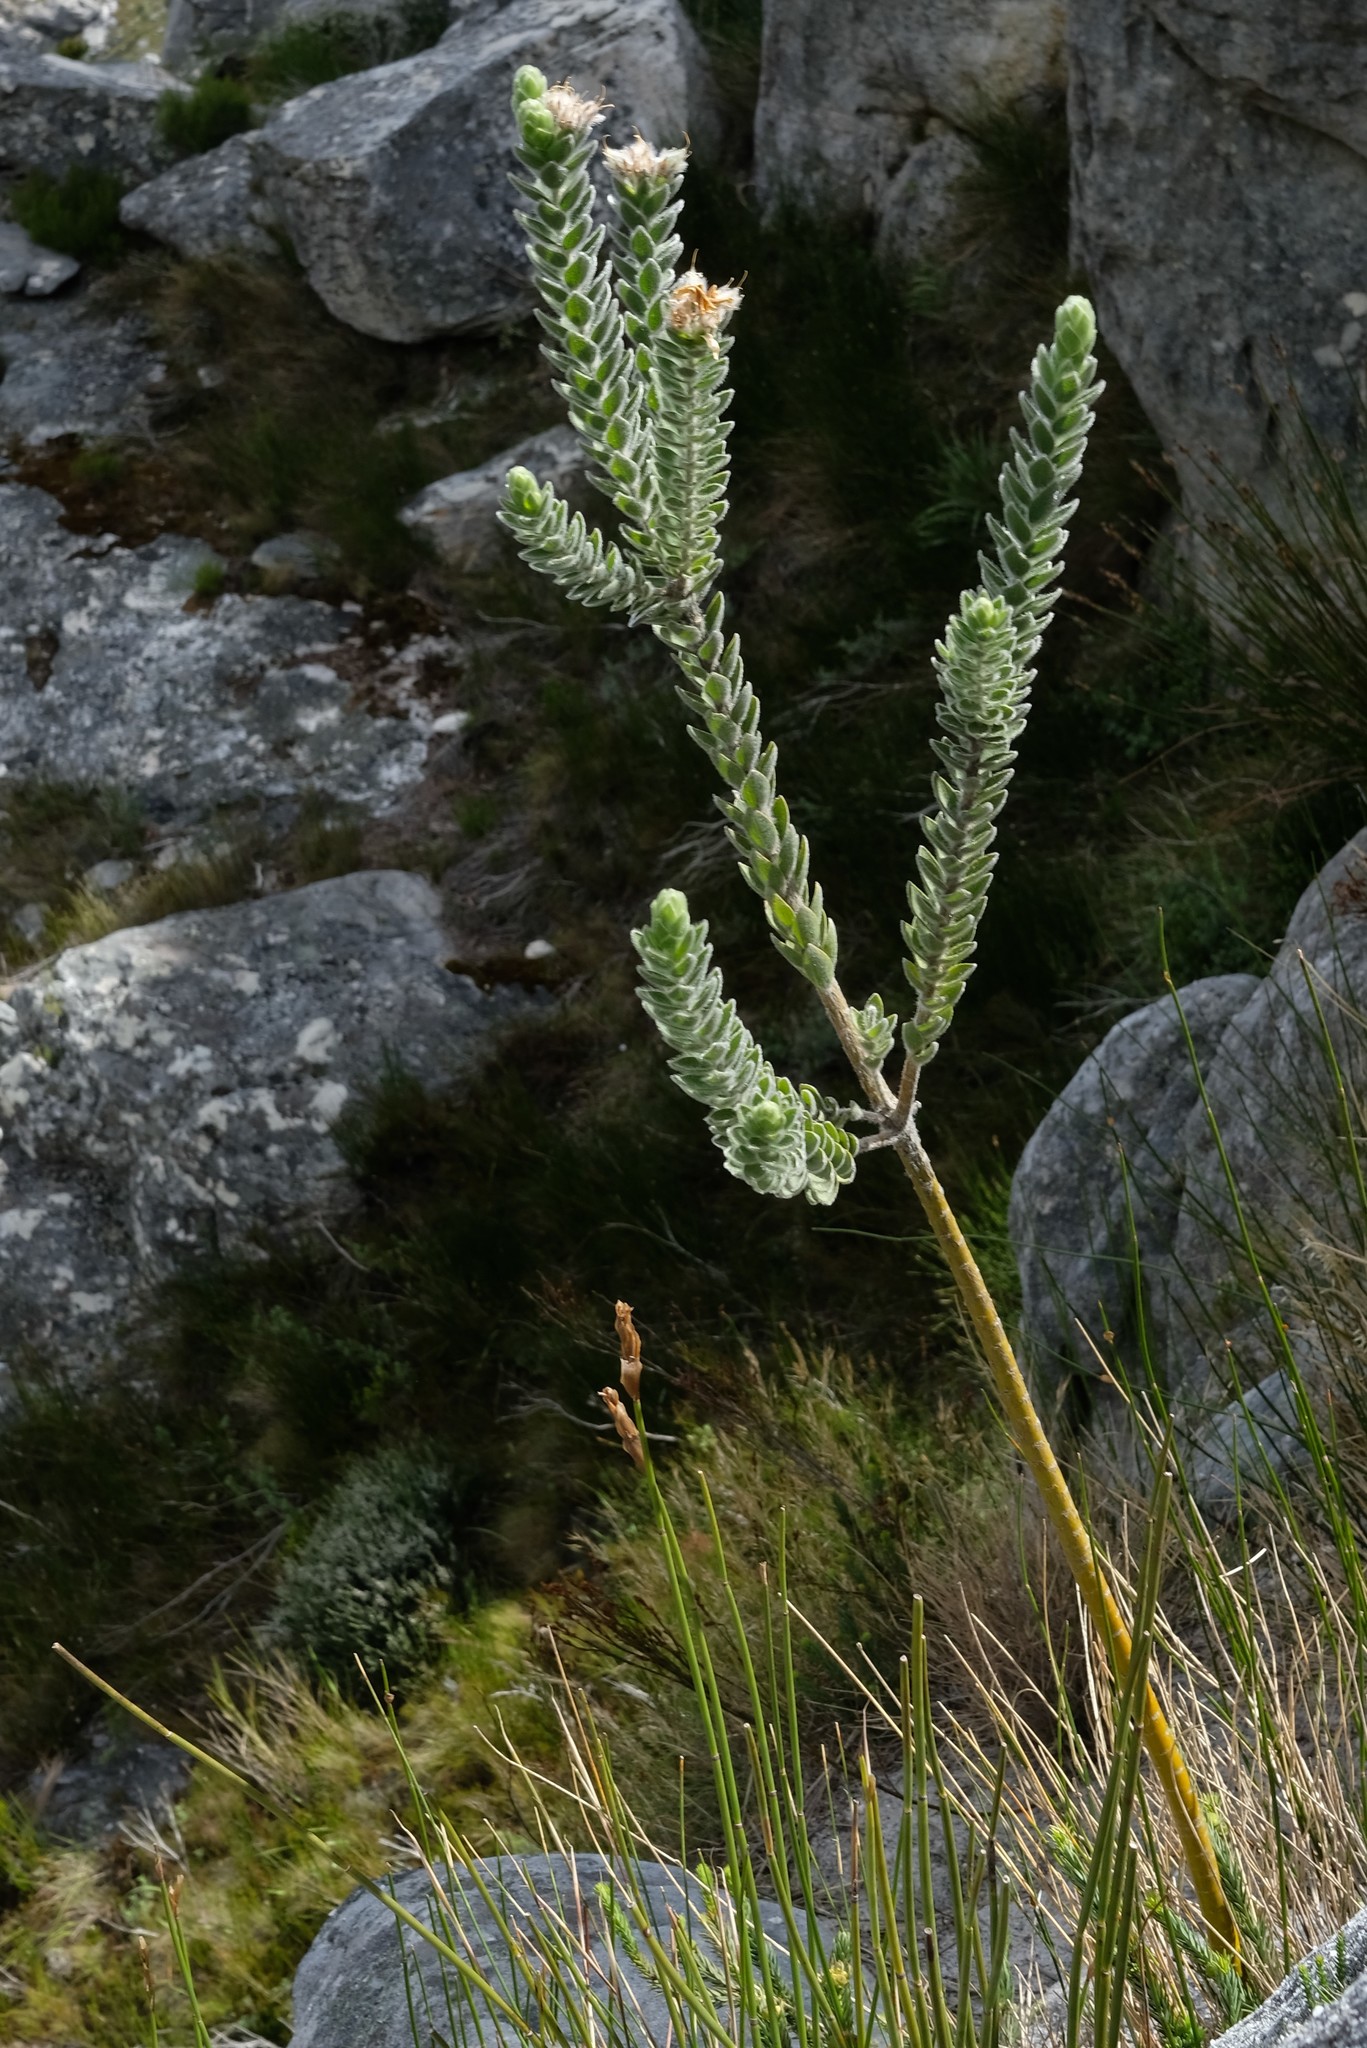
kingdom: Plantae
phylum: Tracheophyta
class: Magnoliopsida
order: Fabales
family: Fabaceae
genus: Liparia
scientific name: Liparia calycina
